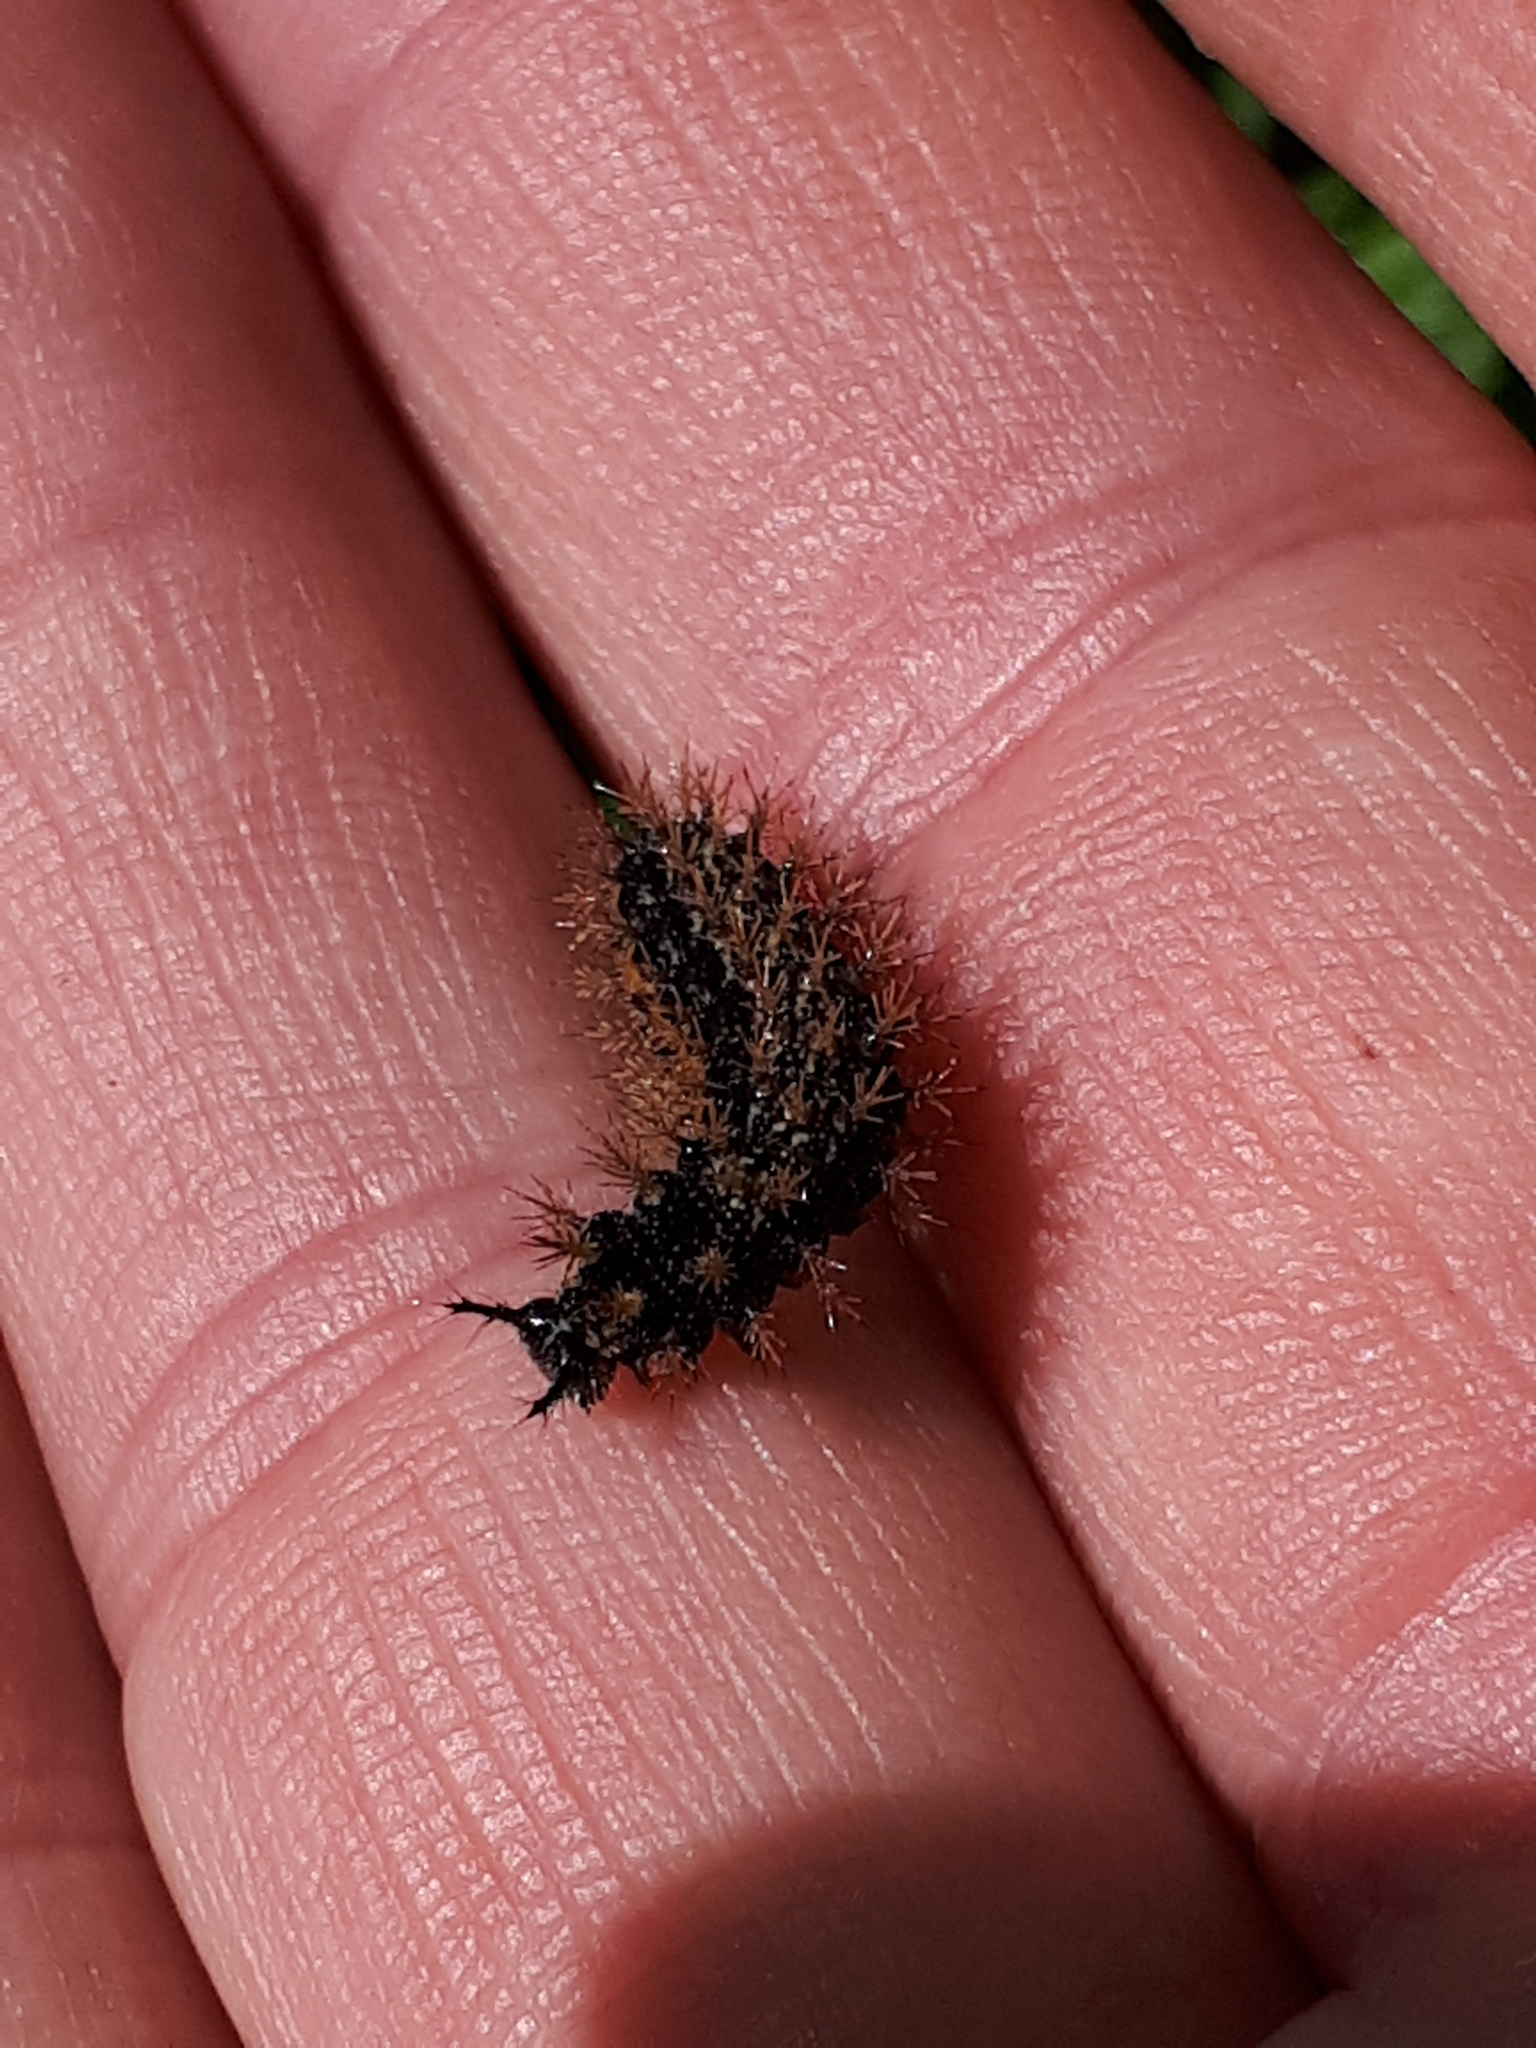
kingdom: Animalia
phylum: Arthropoda
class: Insecta
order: Lepidoptera
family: Nymphalidae
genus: Araschnia
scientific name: Araschnia levana
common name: Map butterfly
